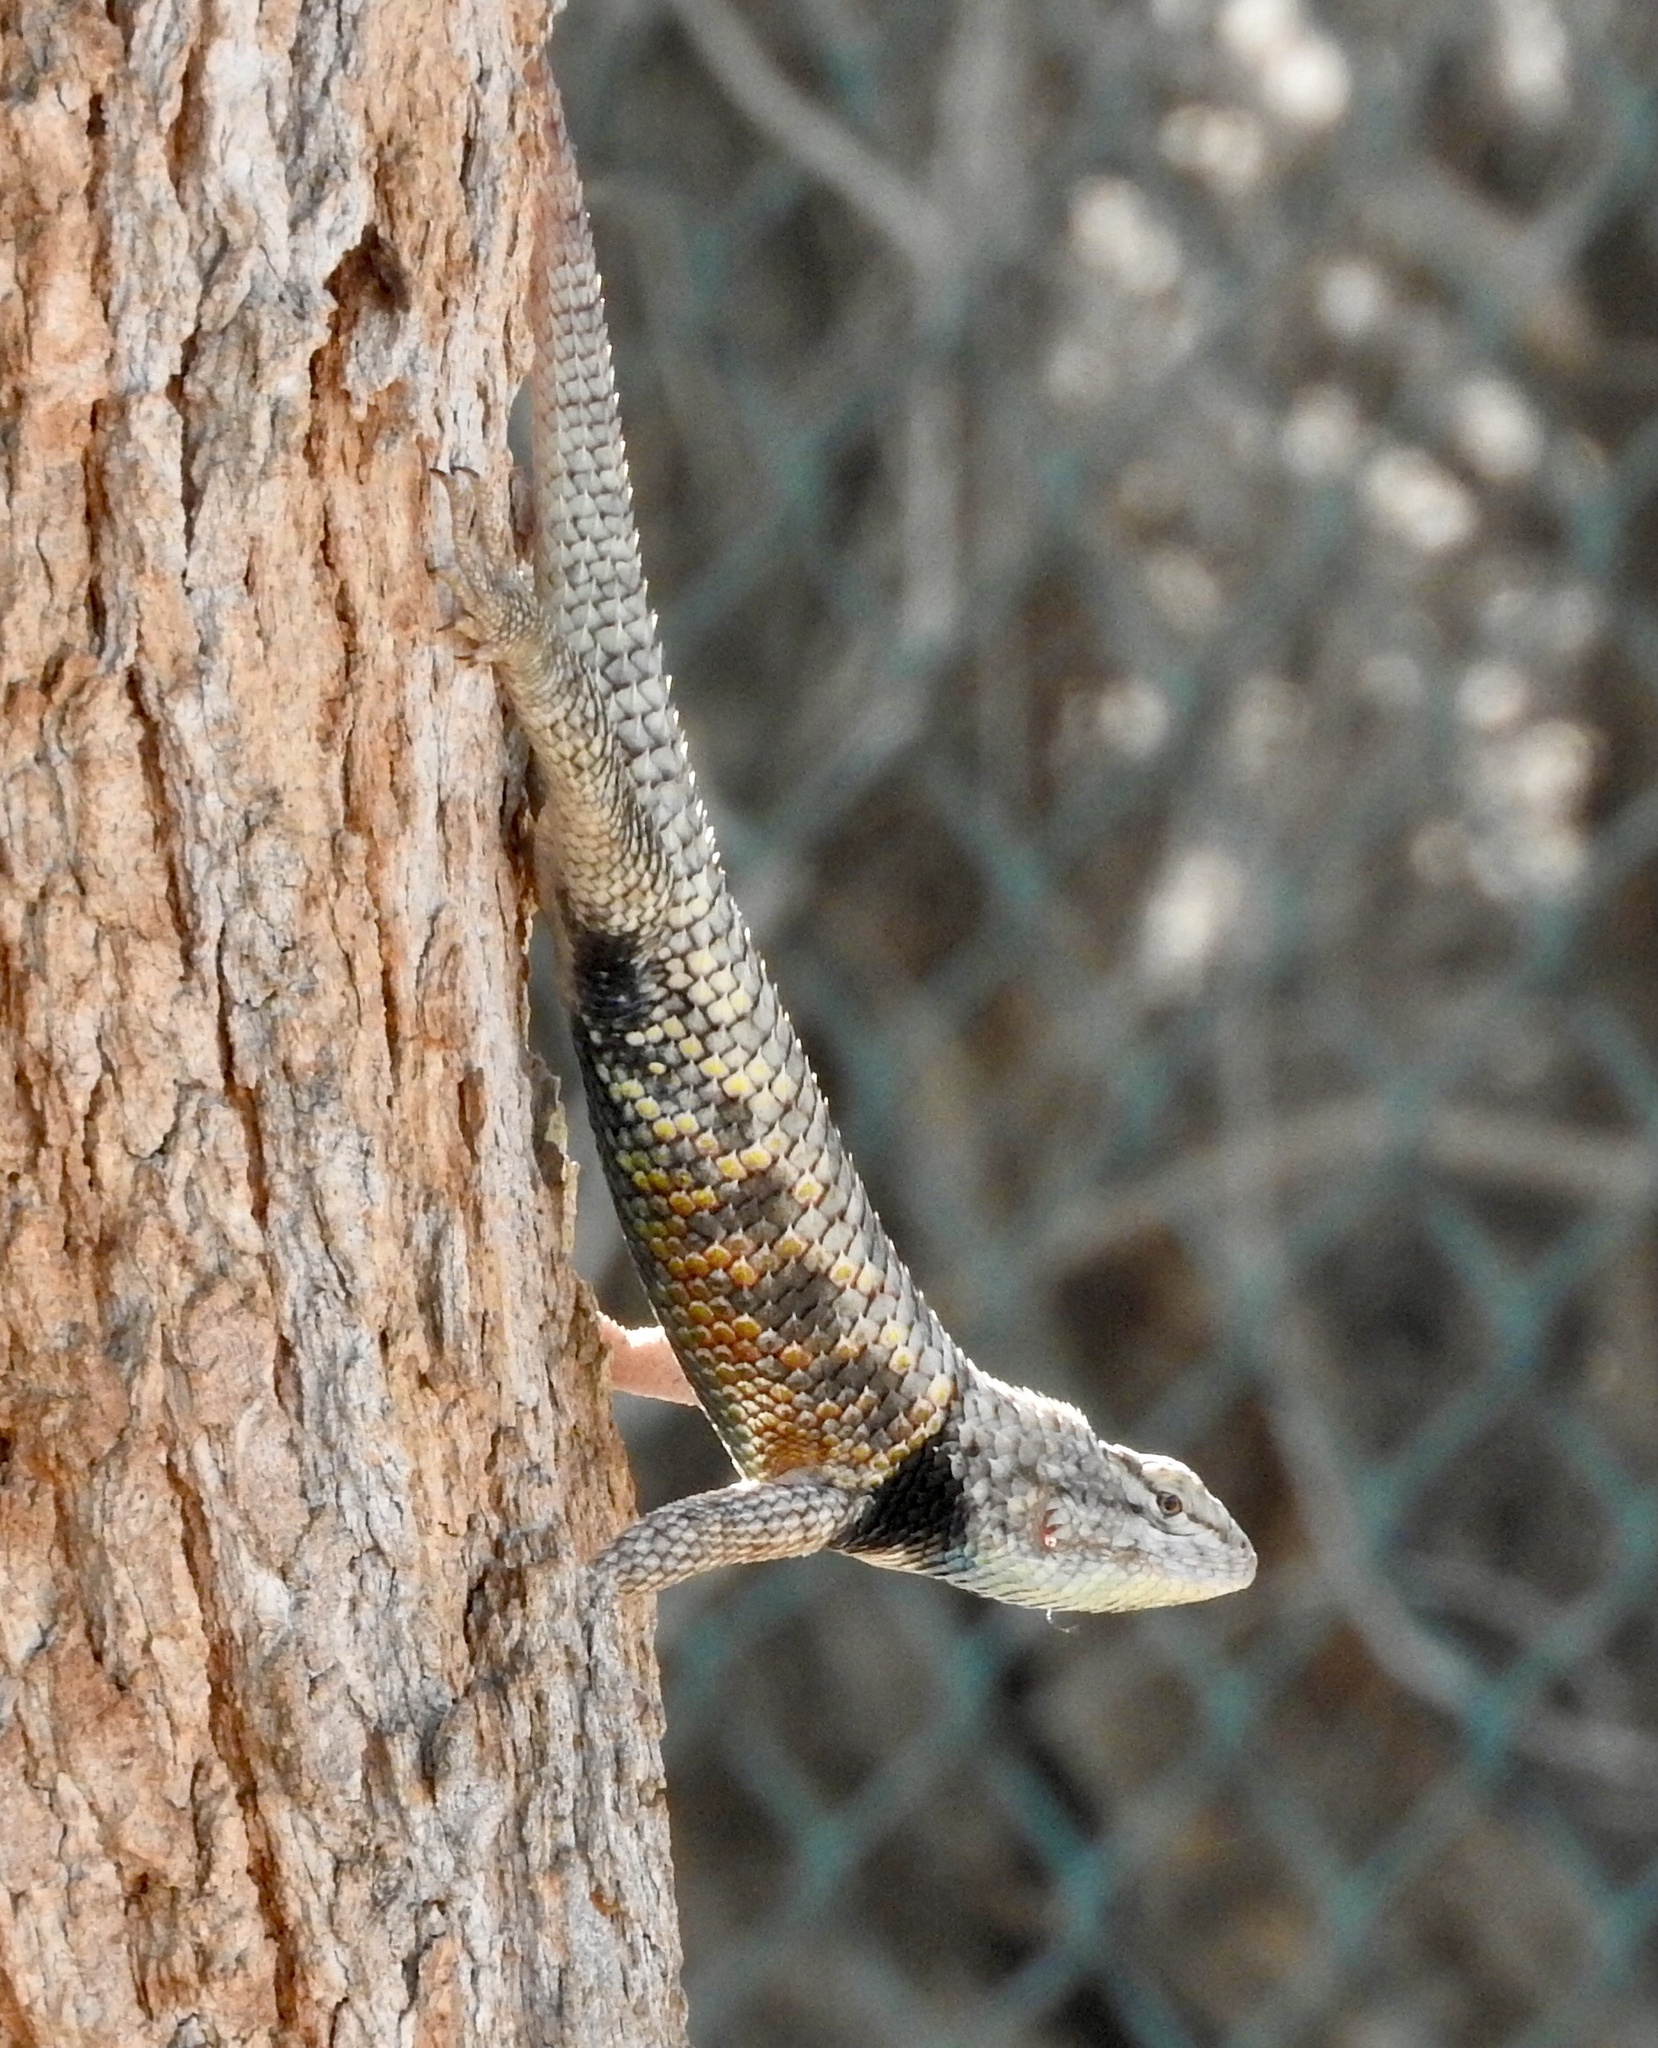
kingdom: Animalia
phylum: Chordata
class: Squamata
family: Phrynosomatidae
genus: Sceloporus
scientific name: Sceloporus magister
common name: Desert spiny lizard
